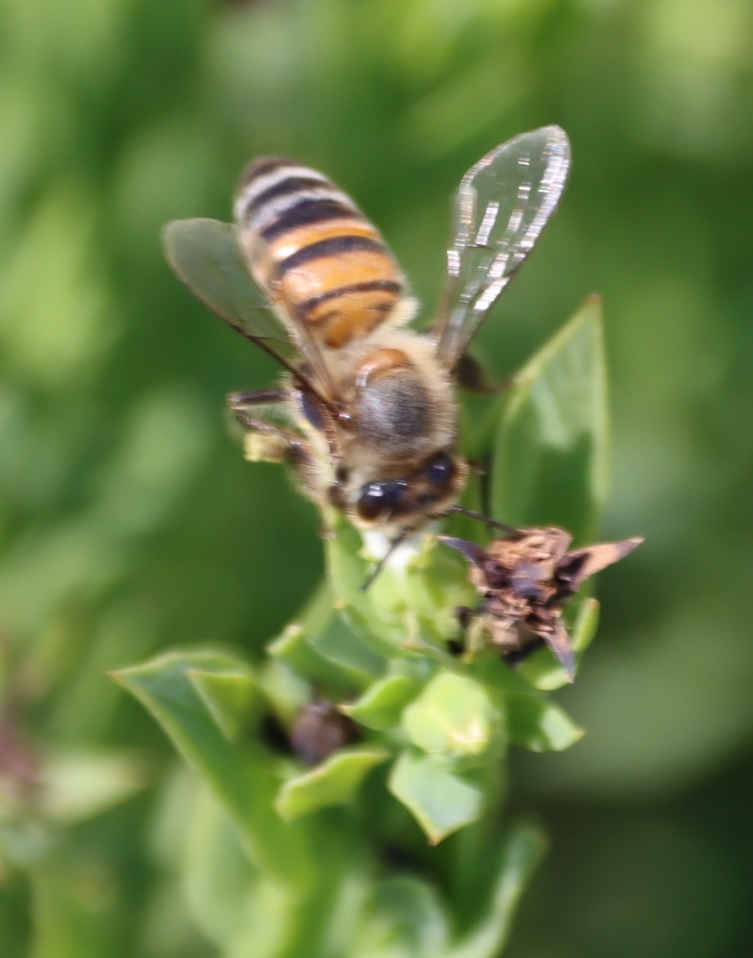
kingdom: Animalia
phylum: Arthropoda
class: Insecta
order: Hymenoptera
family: Apidae
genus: Apis
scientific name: Apis mellifera
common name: Honey bee
